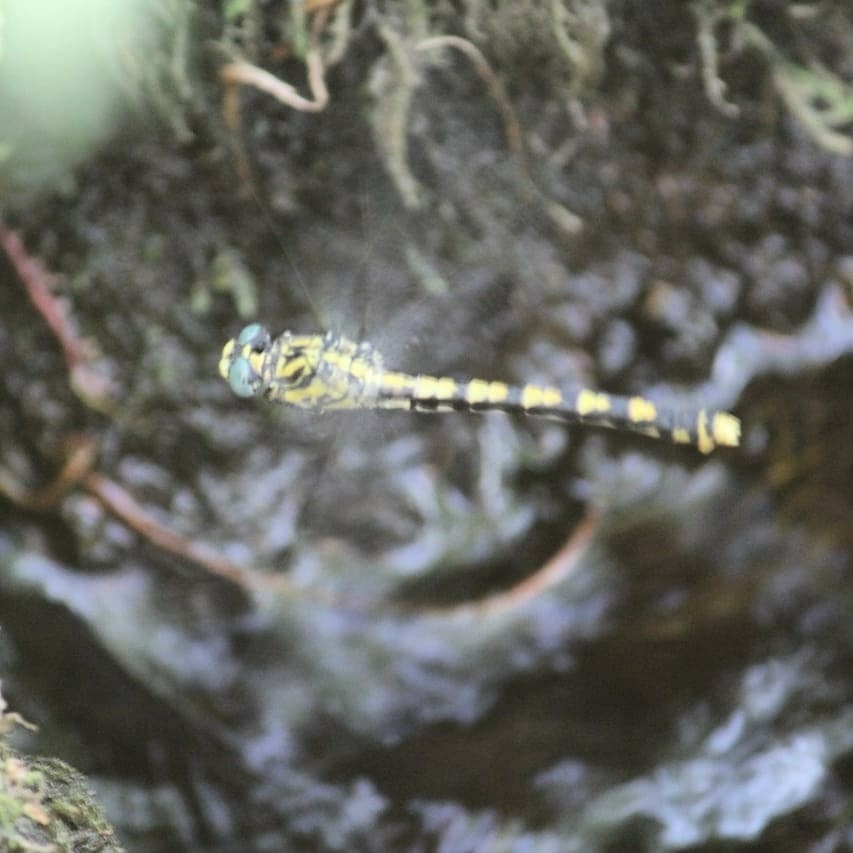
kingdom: Animalia
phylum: Arthropoda
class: Insecta
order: Odonata
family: Gomphidae
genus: Onychogomphus
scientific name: Onychogomphus uncatus
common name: Large pincertail
